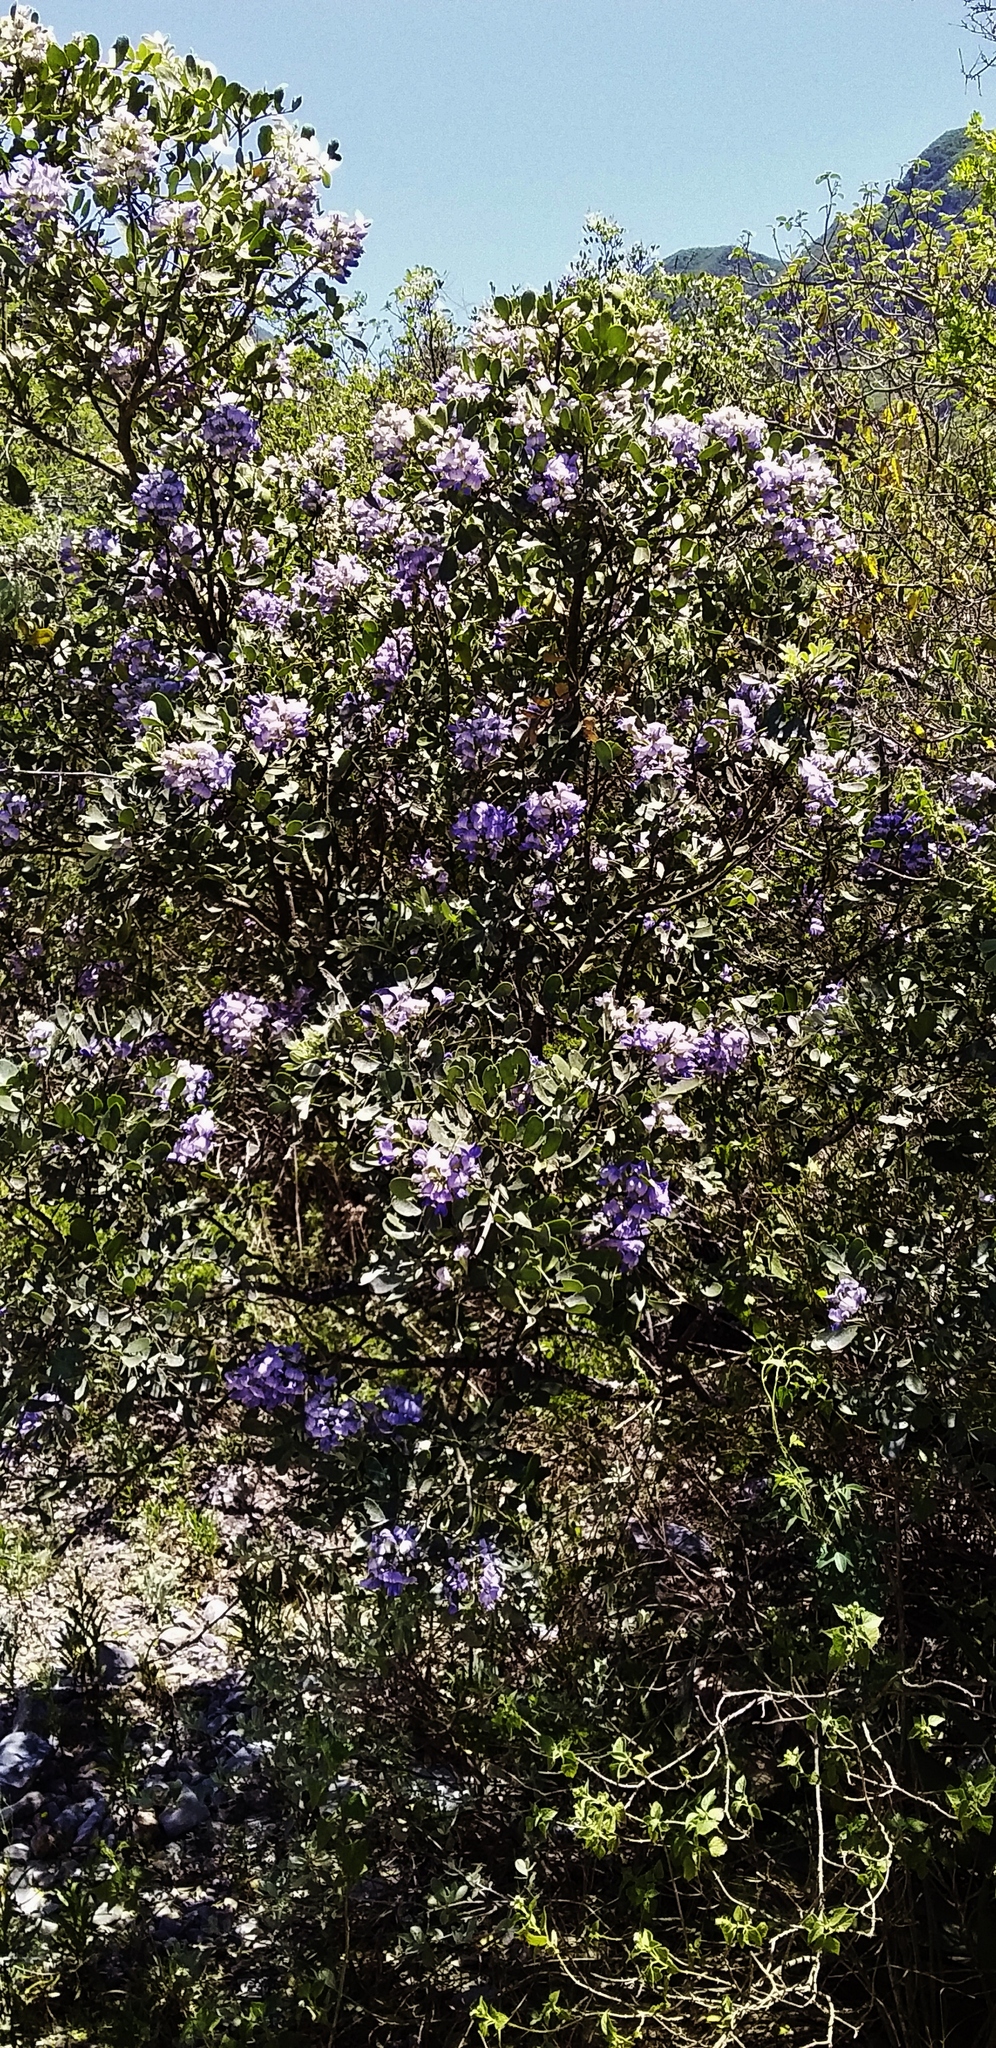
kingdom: Plantae
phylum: Tracheophyta
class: Magnoliopsida
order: Fabales
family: Fabaceae
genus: Dermatophyllum
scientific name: Dermatophyllum secundiflorum
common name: Texas-mountain-laurel
